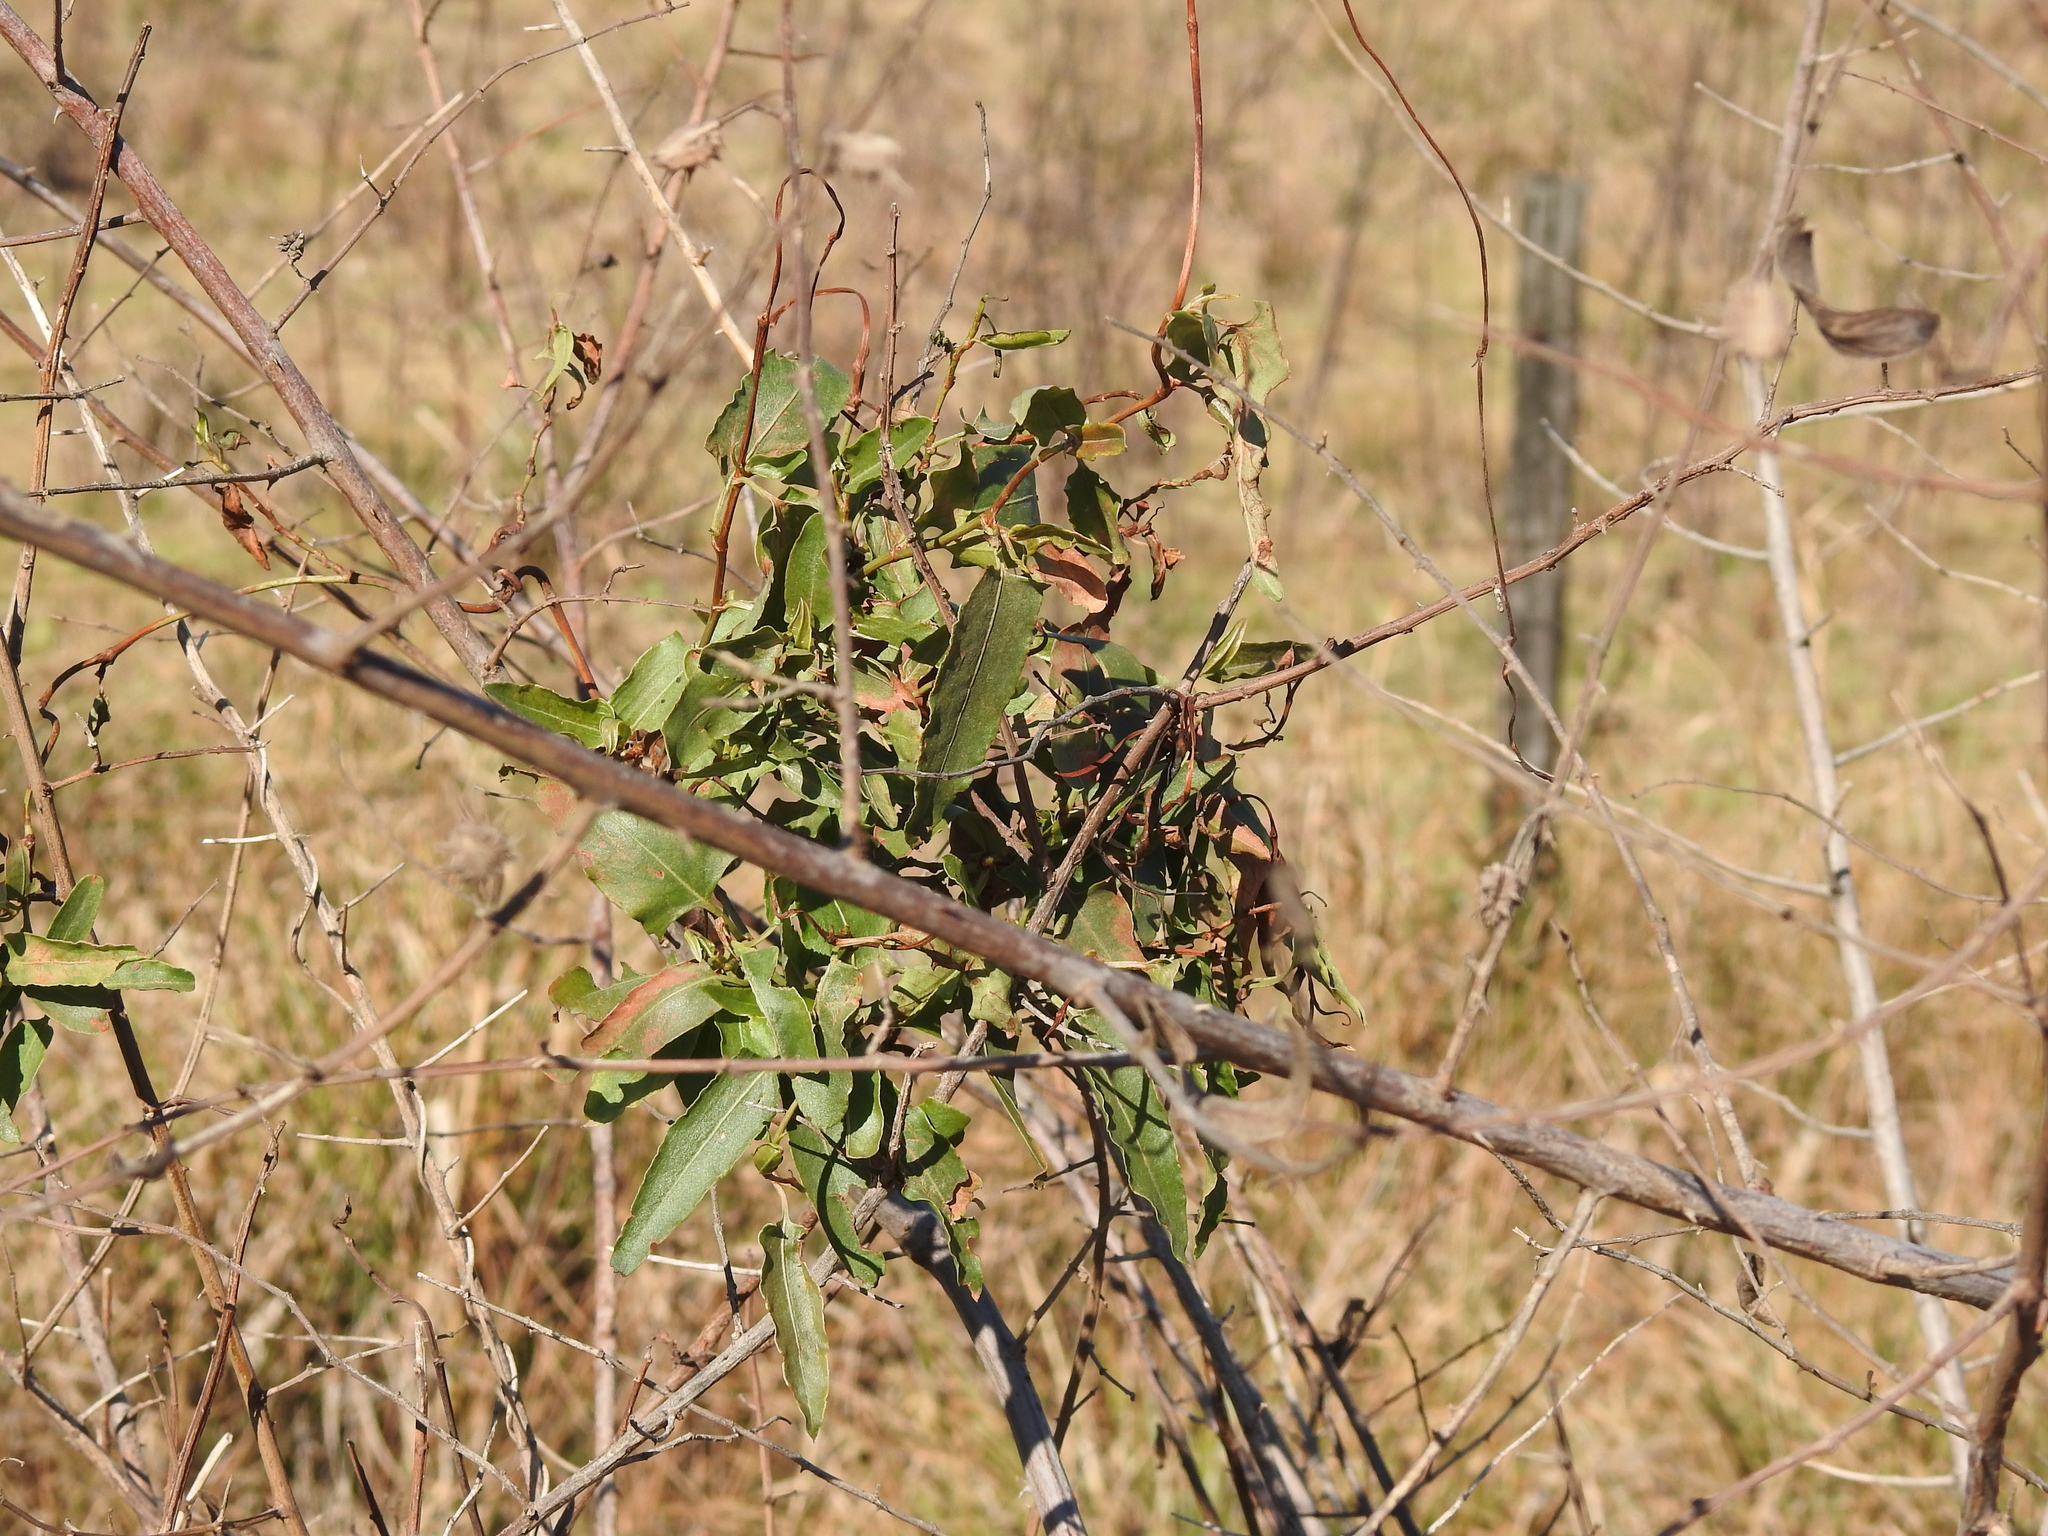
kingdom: Plantae
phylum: Tracheophyta
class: Magnoliopsida
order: Caryophyllales
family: Polygonaceae
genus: Muehlenbeckia
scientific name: Muehlenbeckia sagittifolia
